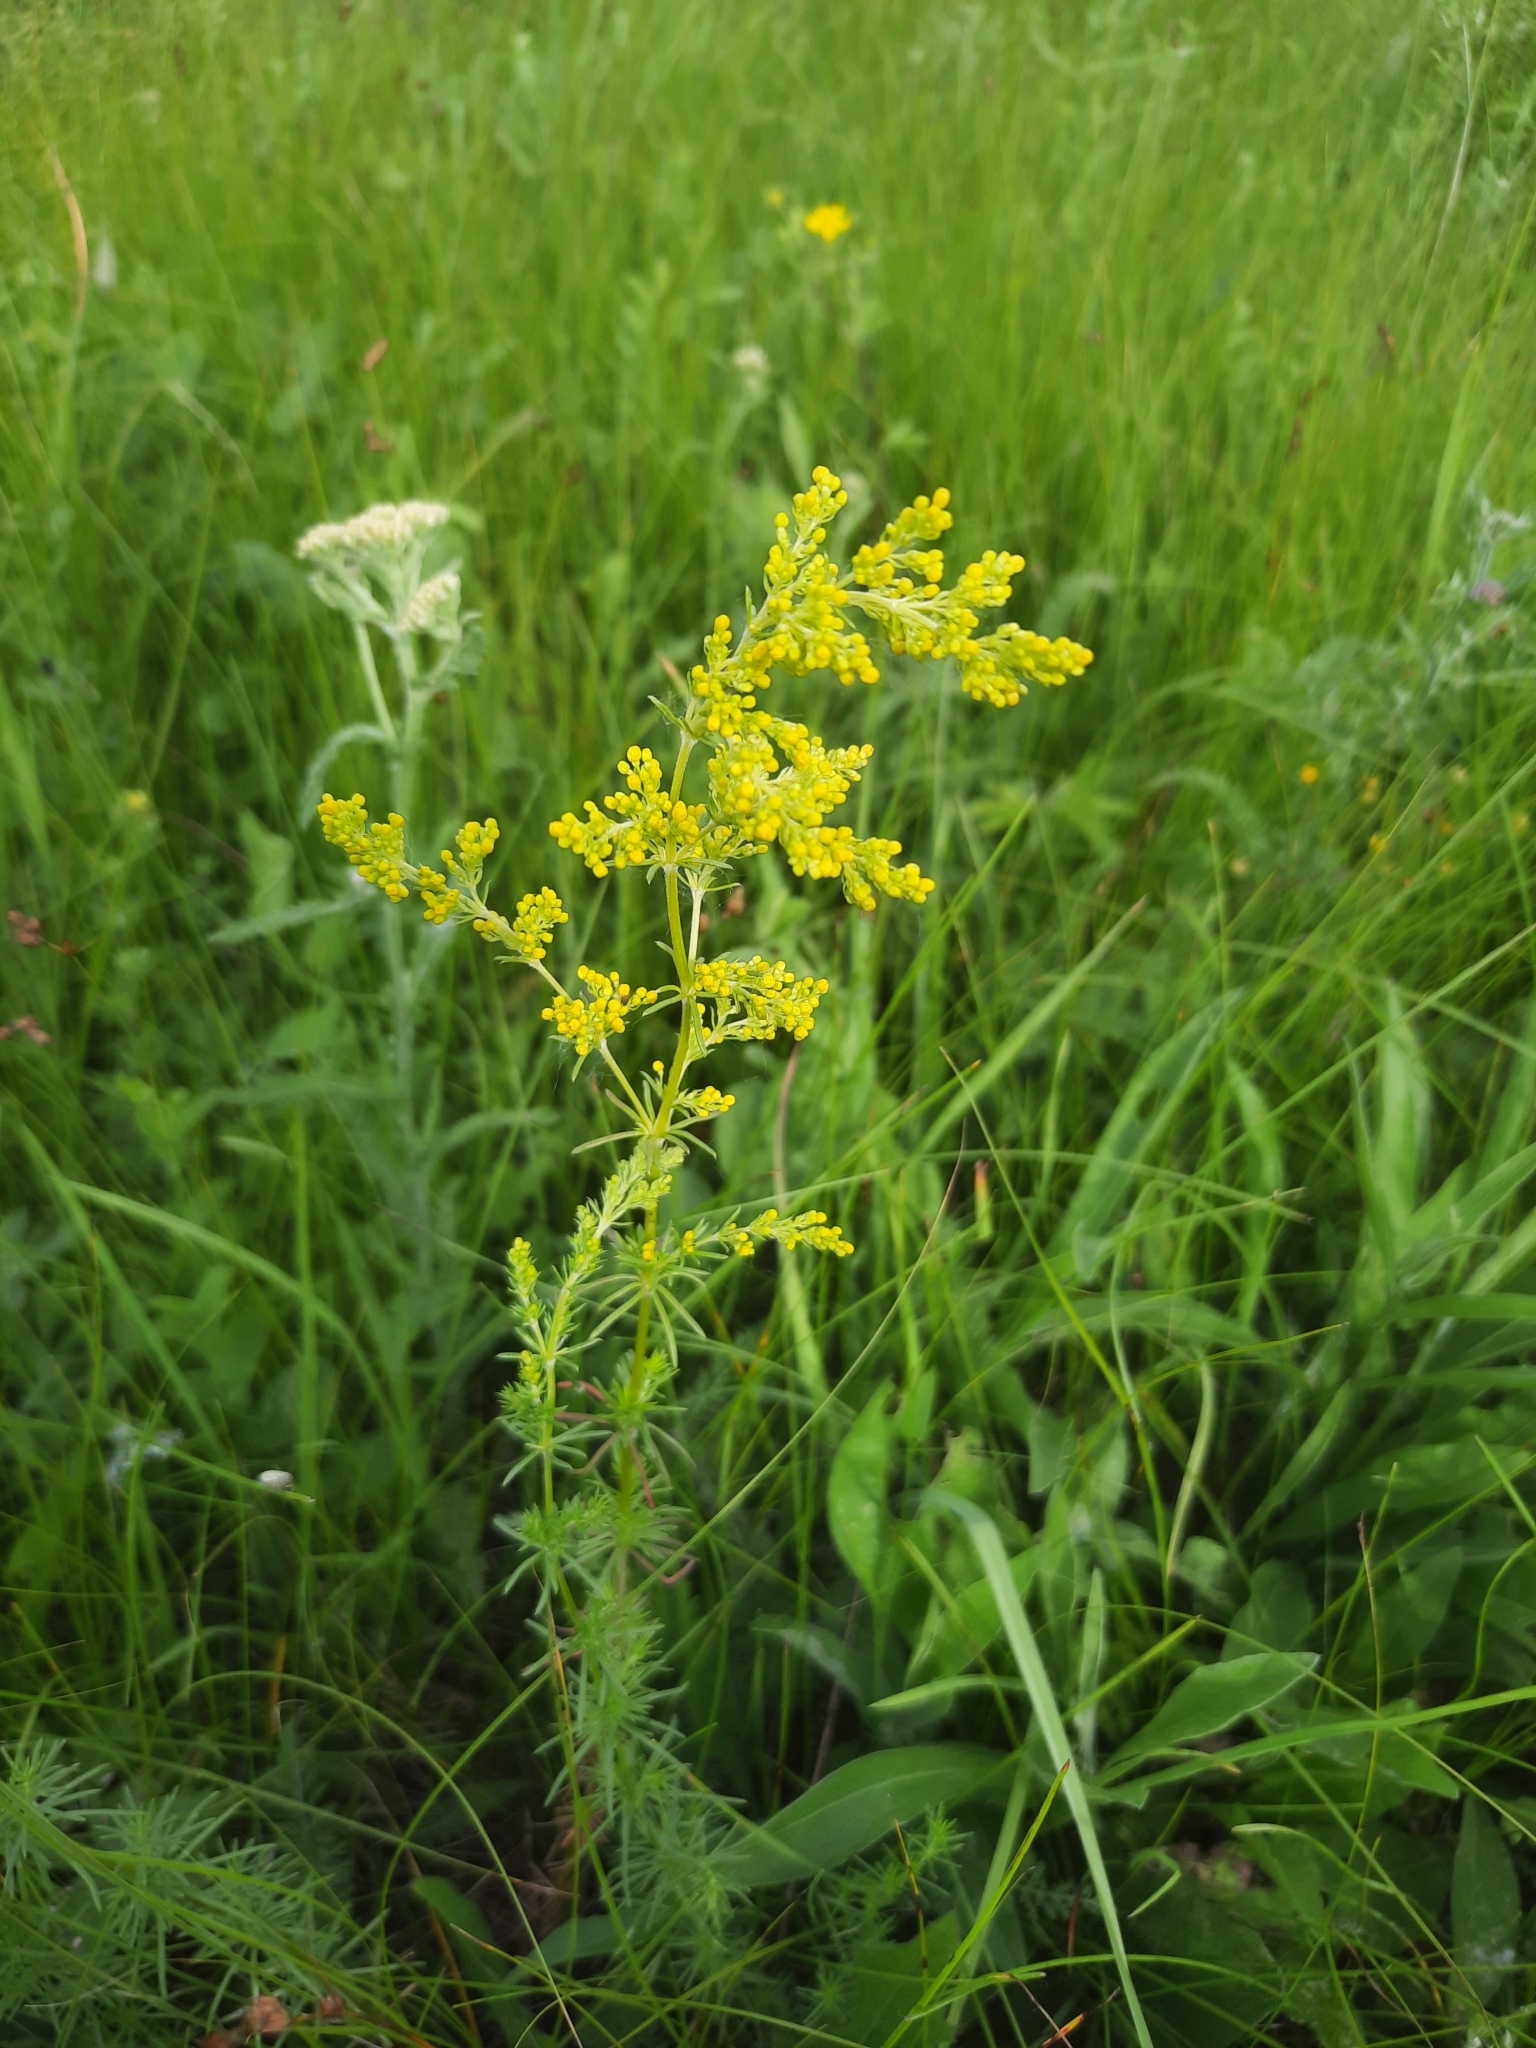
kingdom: Plantae
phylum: Tracheophyta
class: Magnoliopsida
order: Gentianales
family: Rubiaceae
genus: Galium
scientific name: Galium verum
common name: Lady's bedstraw
